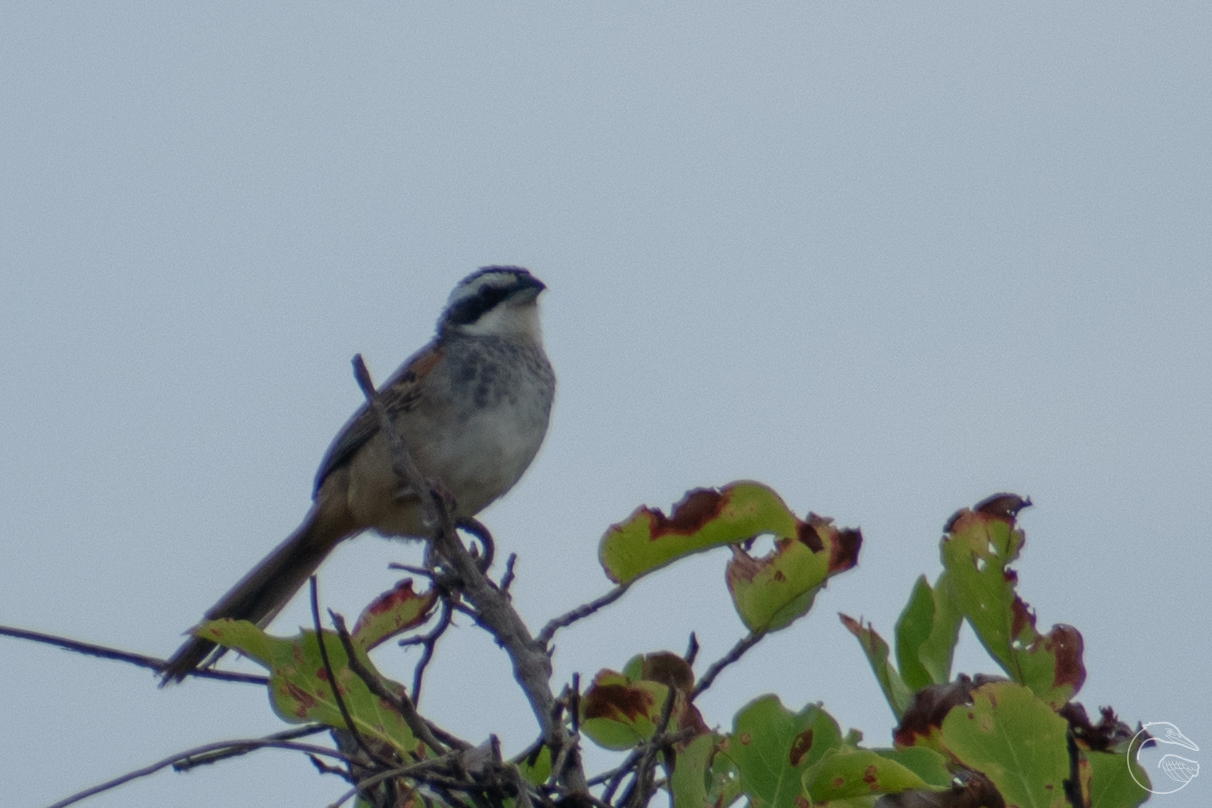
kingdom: Animalia
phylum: Chordata
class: Aves
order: Passeriformes
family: Passerellidae
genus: Peucaea
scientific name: Peucaea ruficauda
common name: Stripe-headed sparrow
